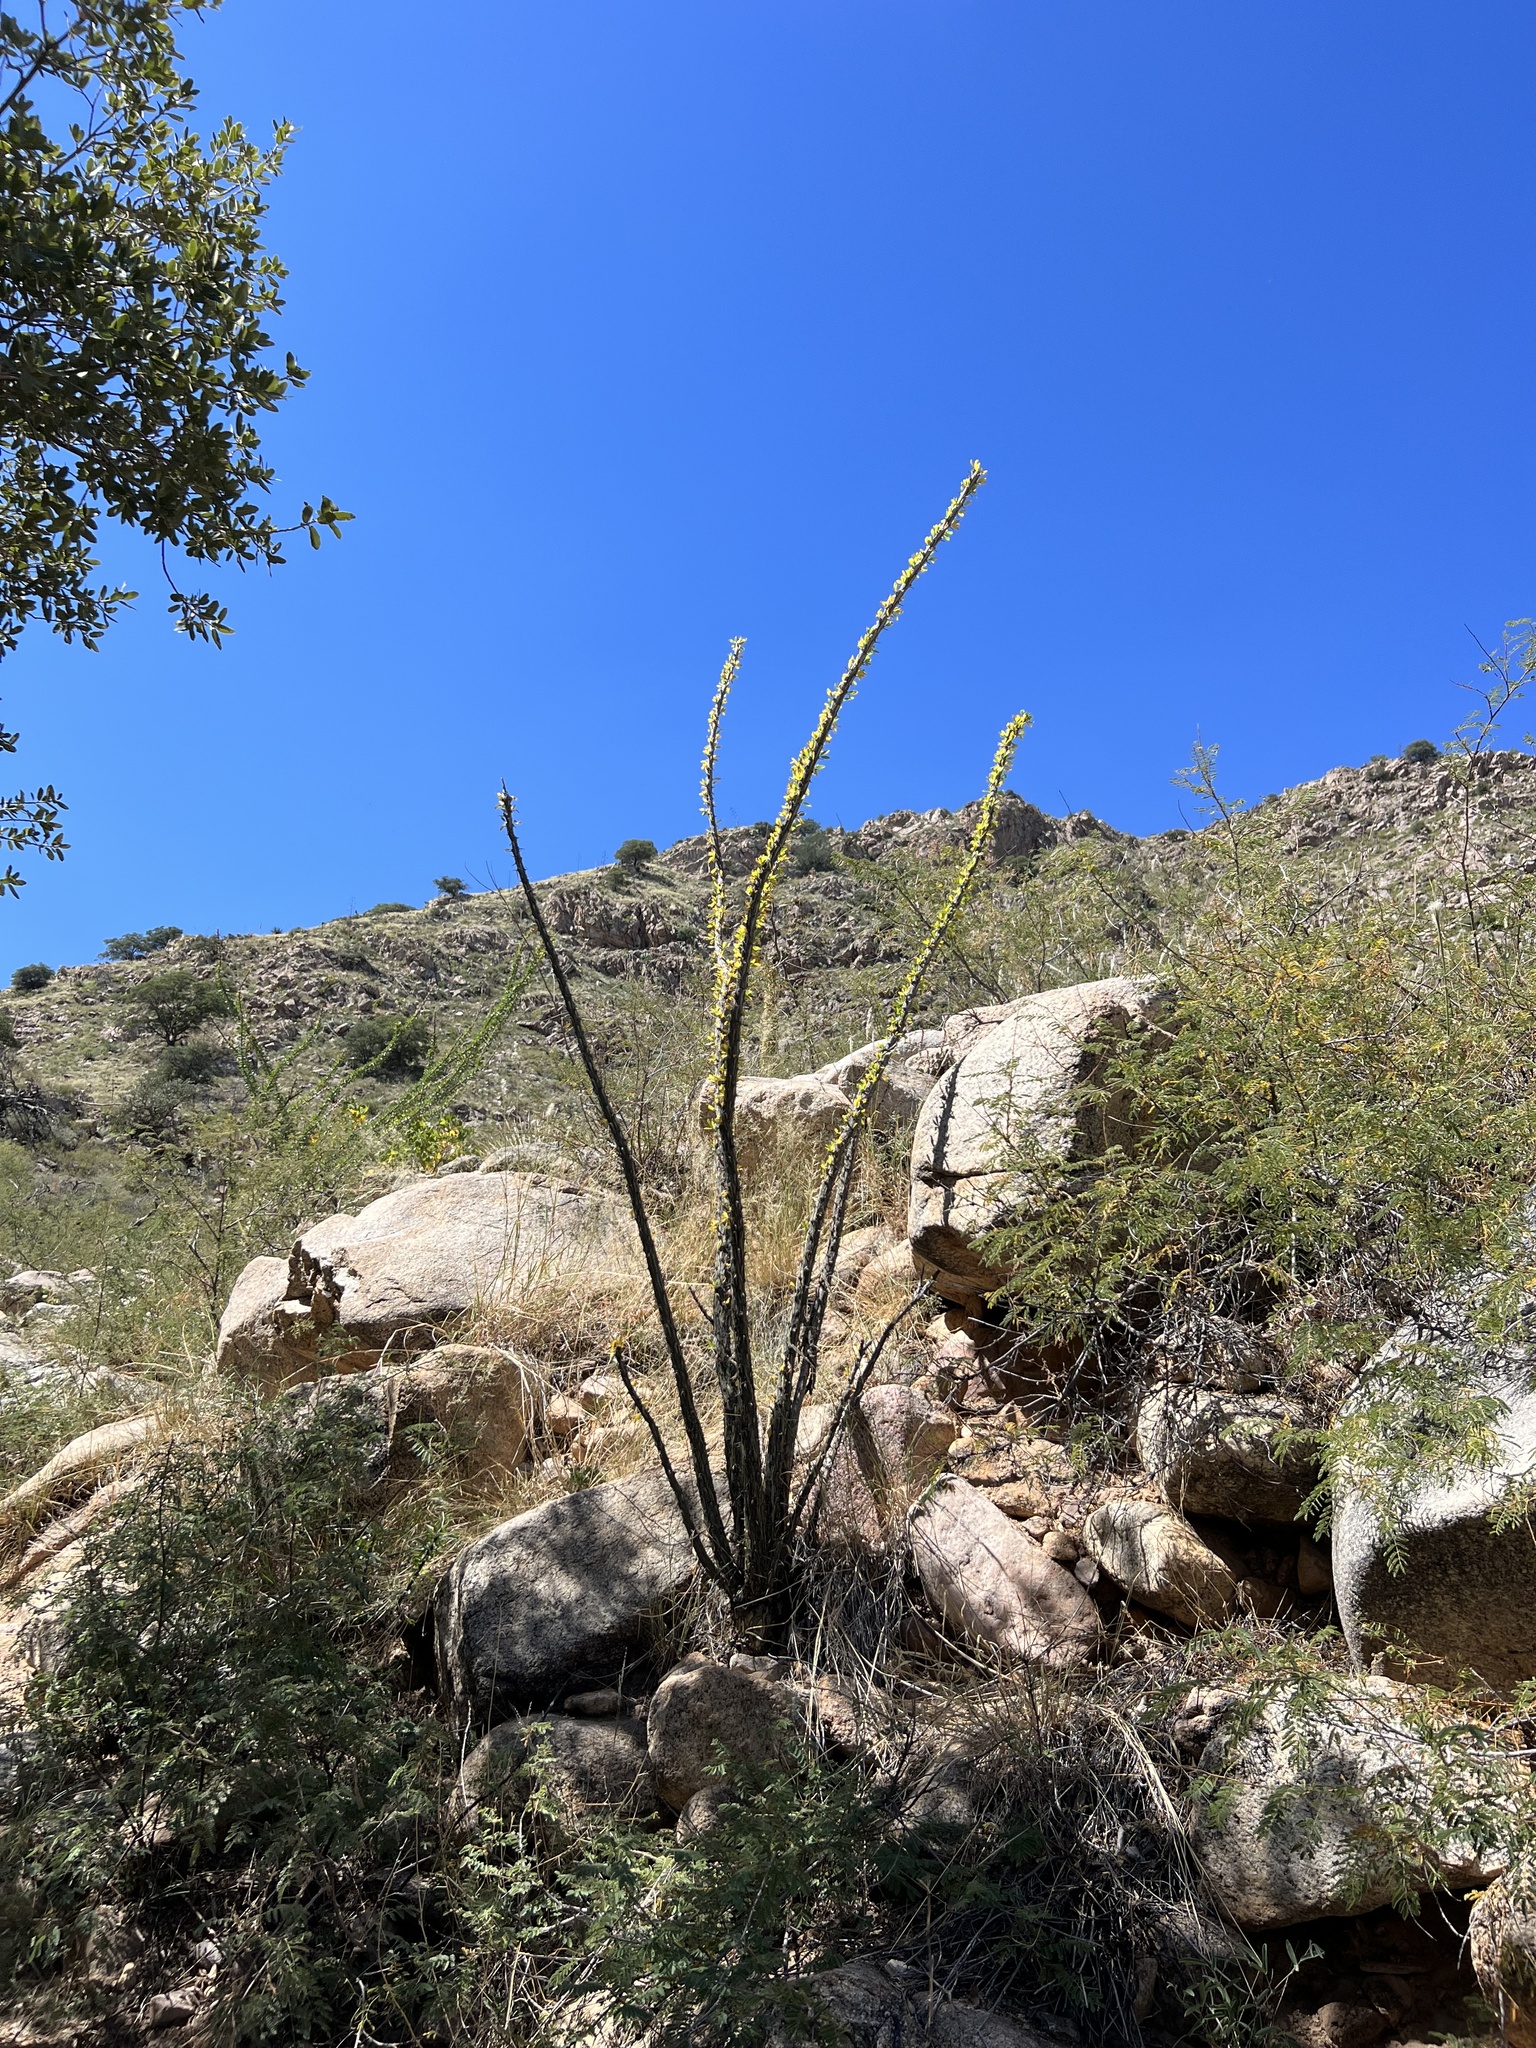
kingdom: Plantae
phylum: Tracheophyta
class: Magnoliopsida
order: Ericales
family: Fouquieriaceae
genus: Fouquieria
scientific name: Fouquieria splendens
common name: Vine-cactus
